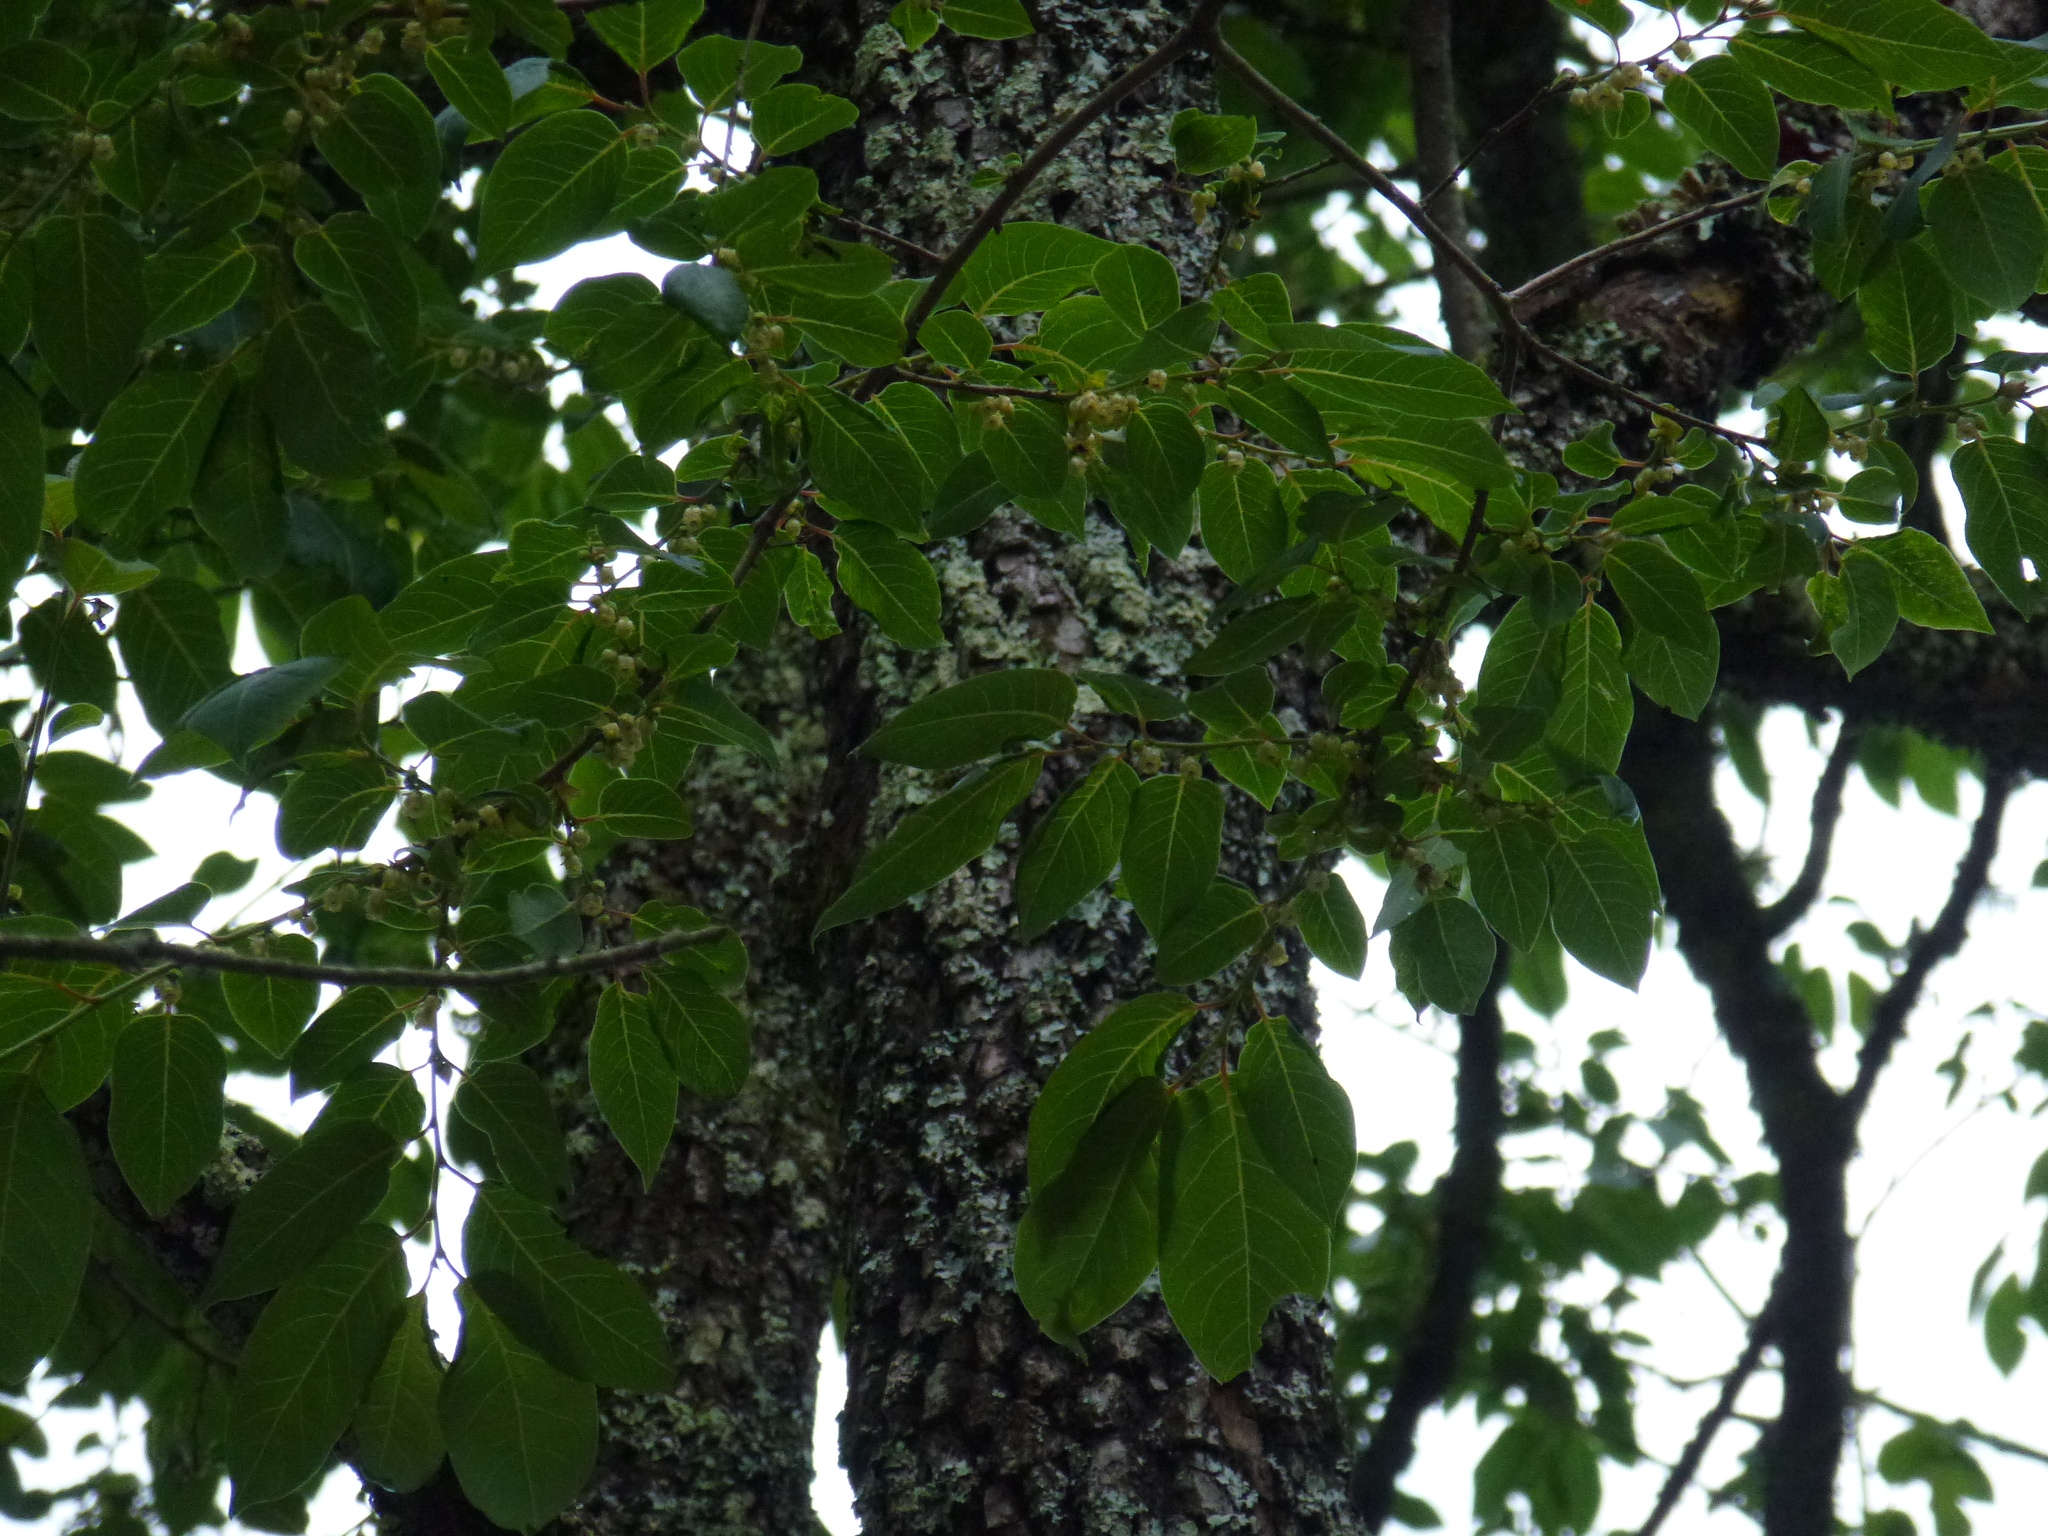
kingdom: Plantae
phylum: Tracheophyta
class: Magnoliopsida
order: Ericales
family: Ebenaceae
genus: Diospyros
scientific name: Diospyros virginiana
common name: Persimmon
